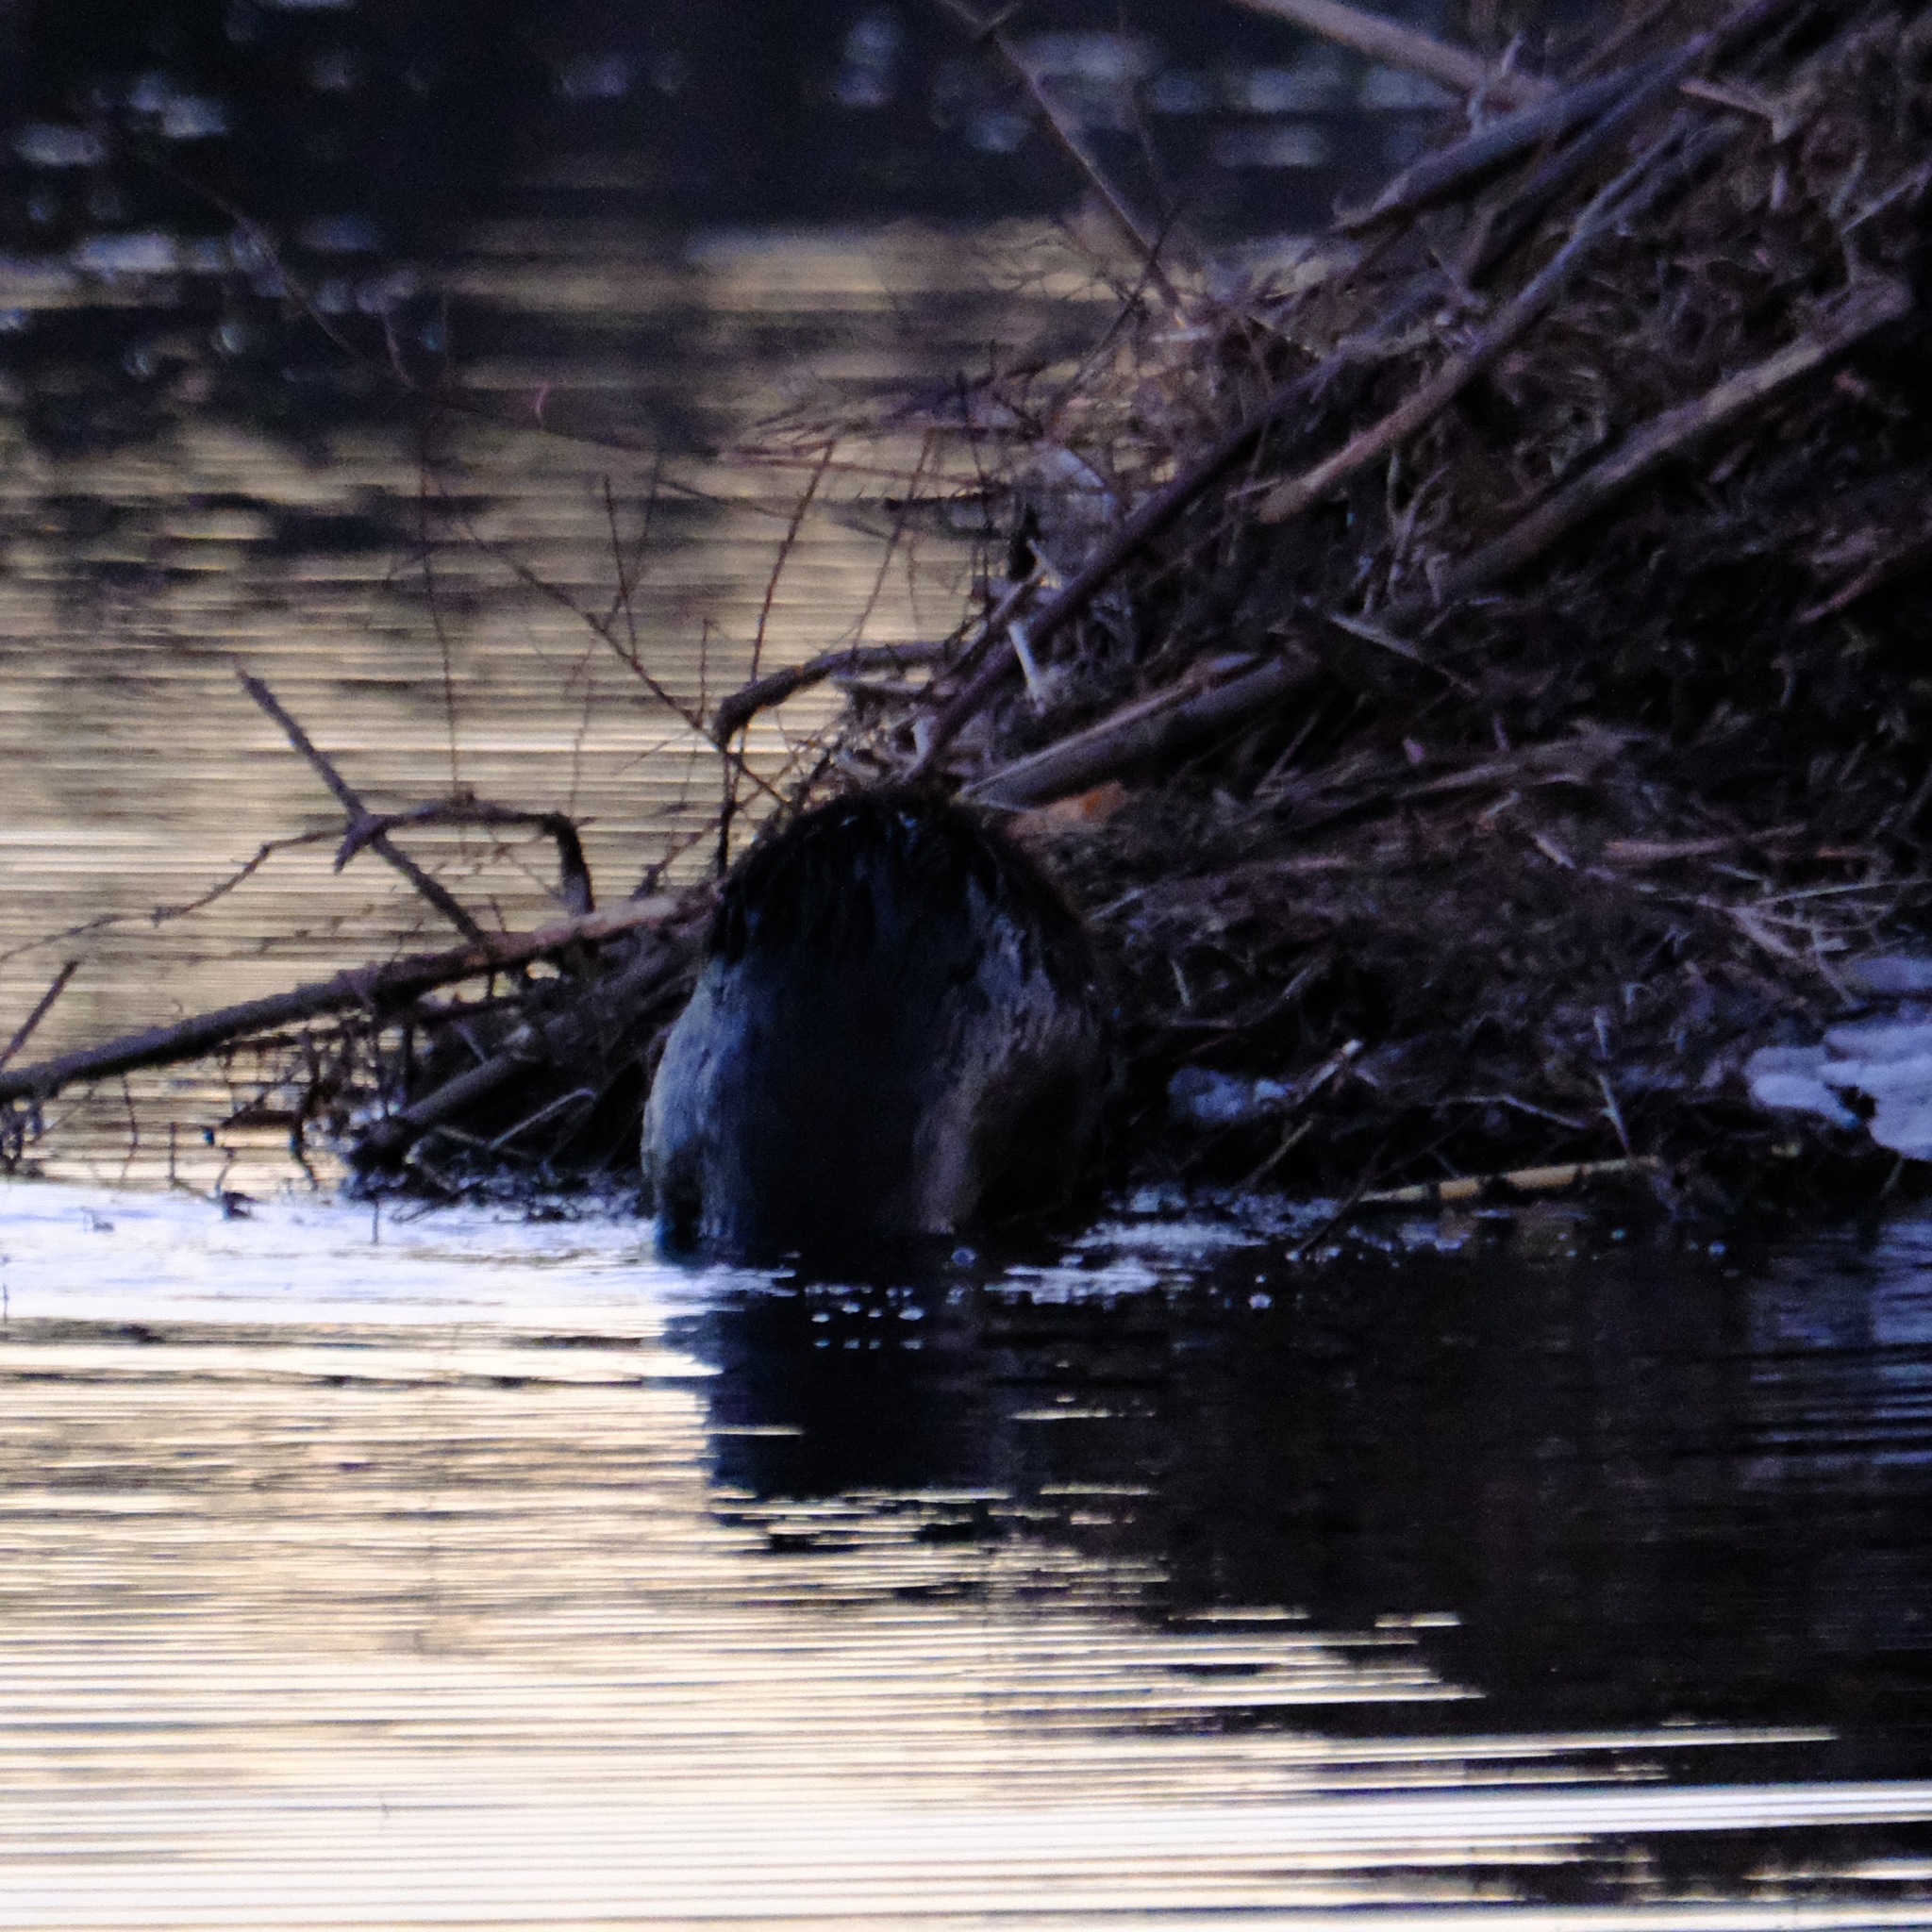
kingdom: Animalia
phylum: Chordata
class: Mammalia
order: Rodentia
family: Castoridae
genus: Castor
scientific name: Castor canadensis
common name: American beaver
